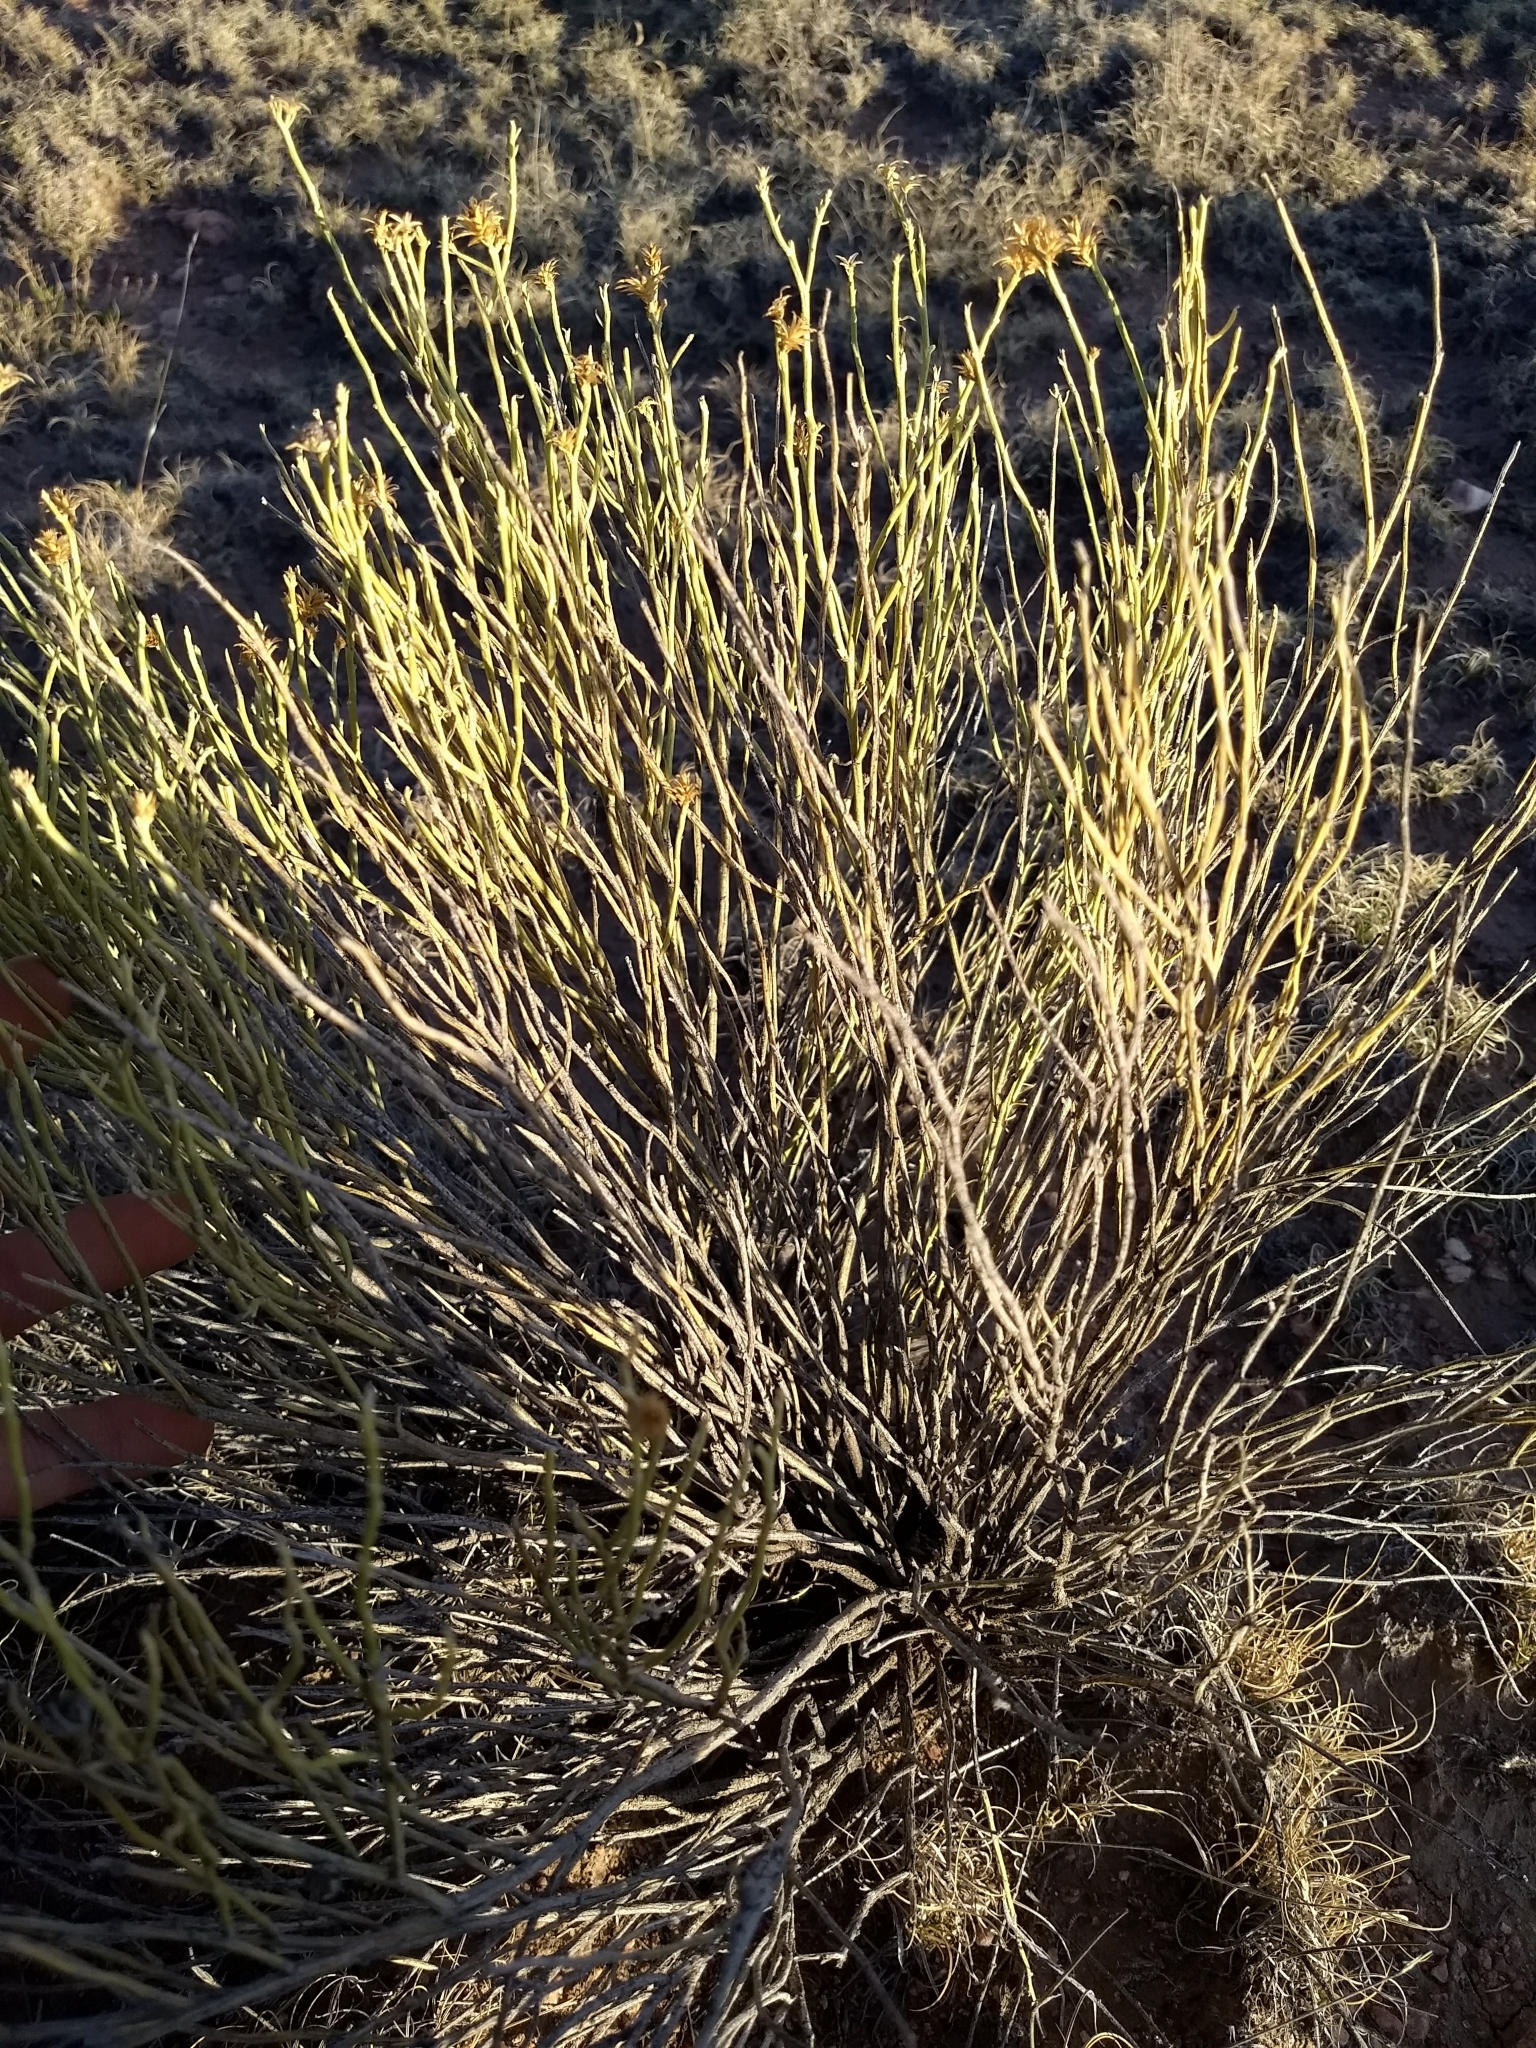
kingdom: Plantae
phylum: Tracheophyta
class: Magnoliopsida
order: Asterales
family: Asteraceae
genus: Ericameria
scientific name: Ericameria nauseosa
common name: Rubber rabbitbrush
